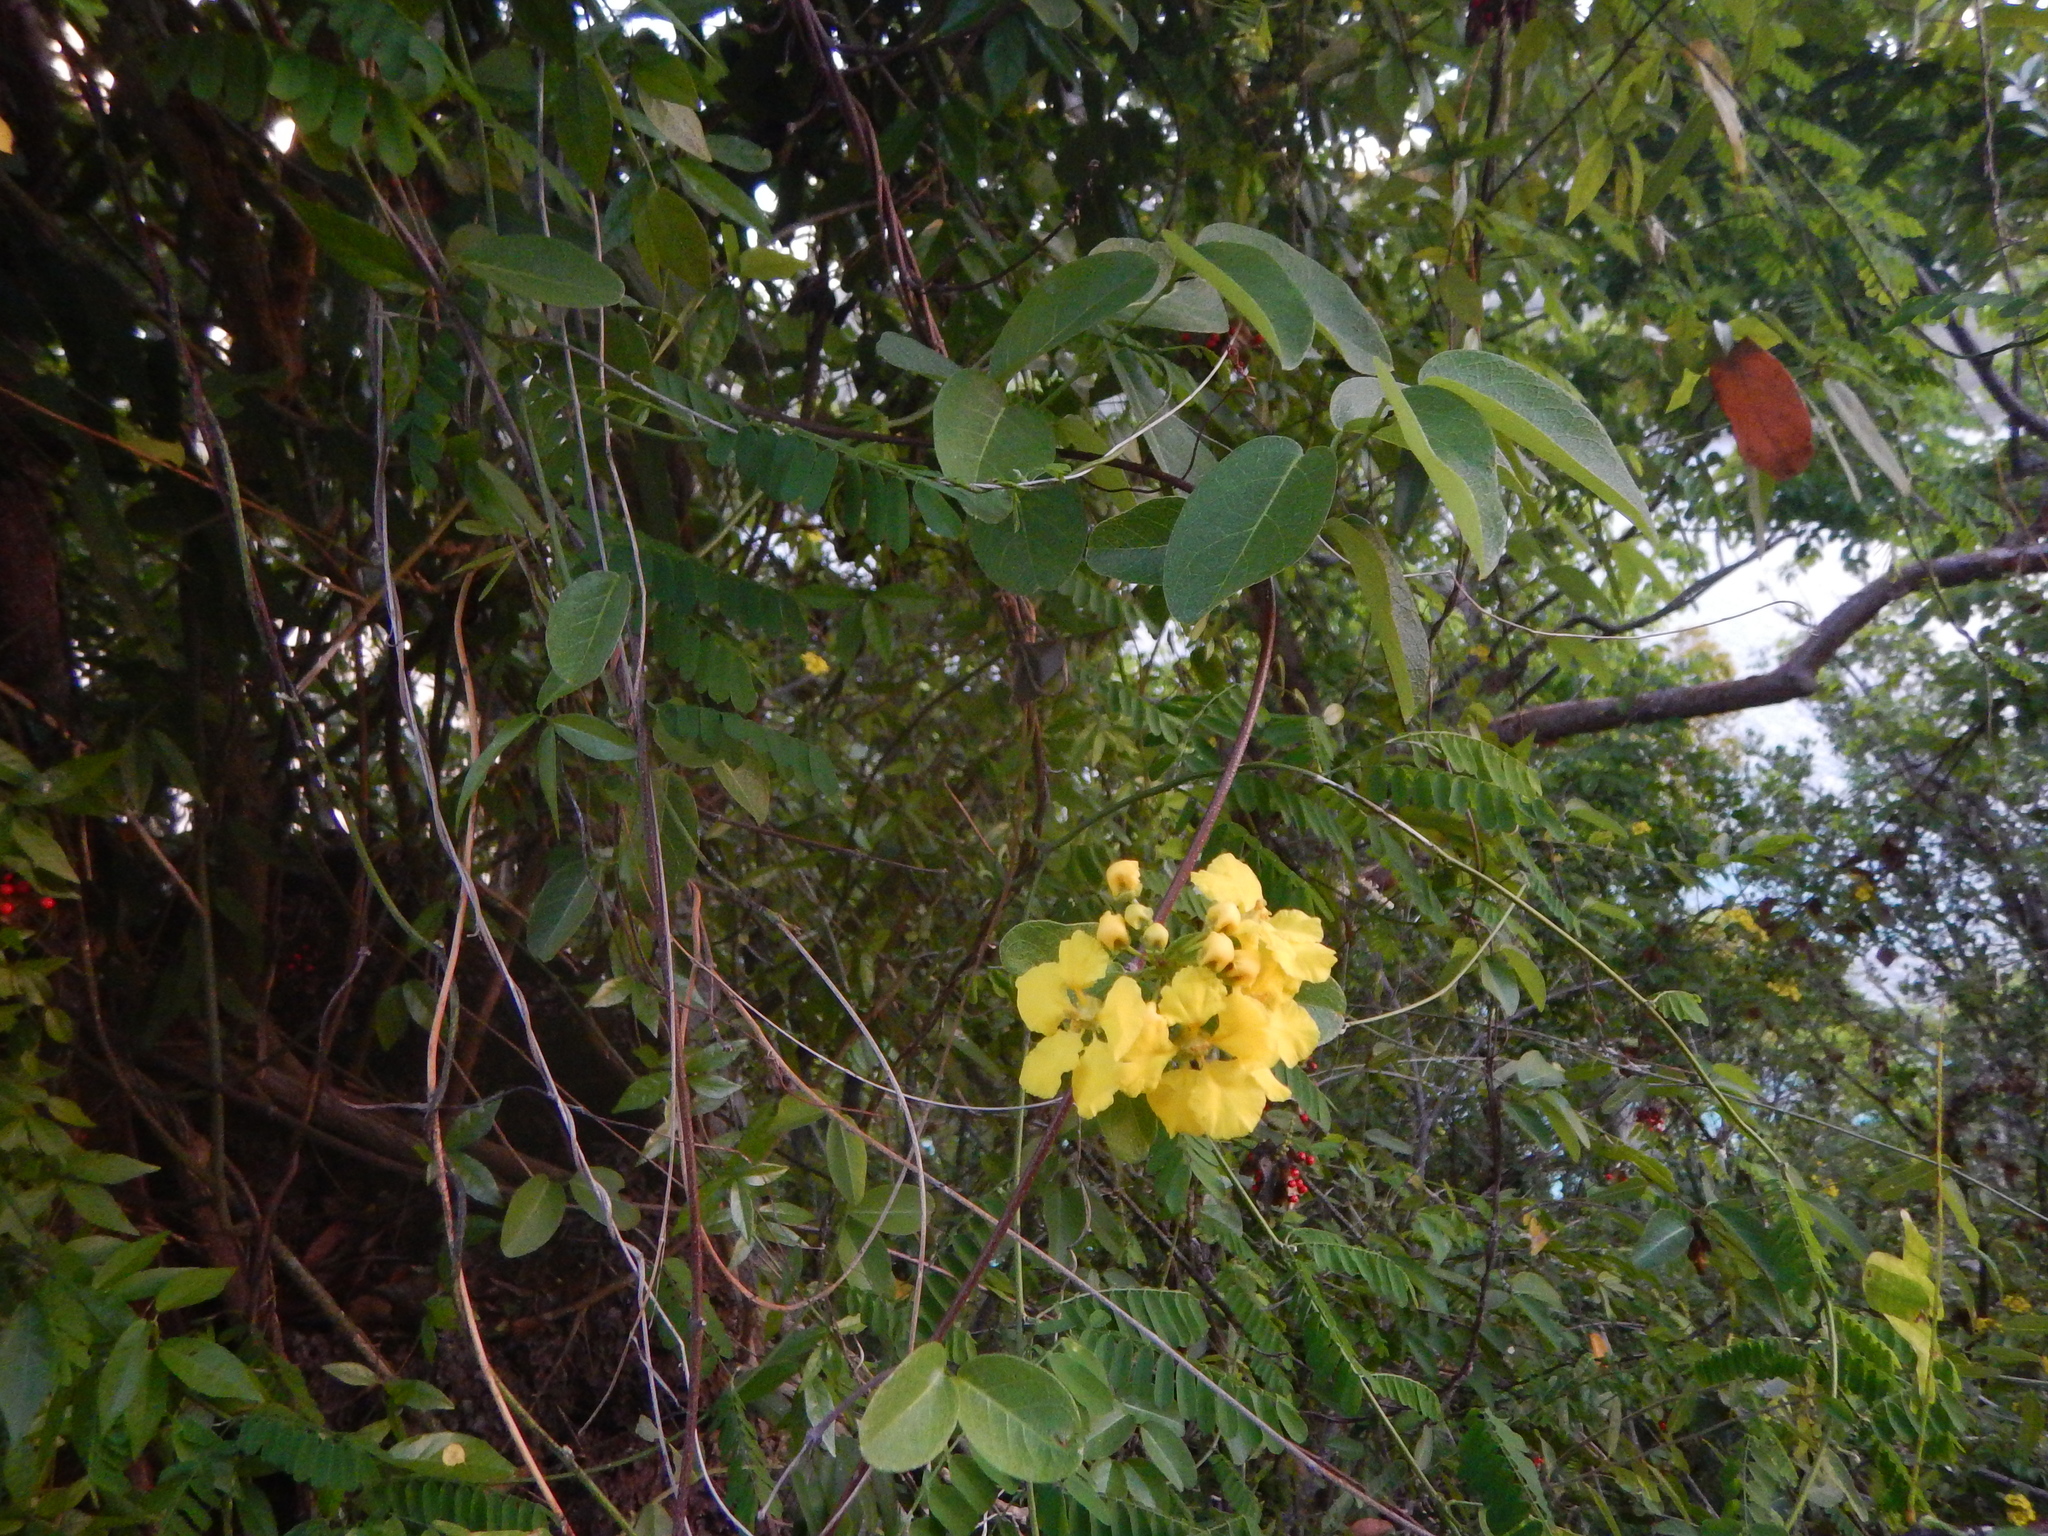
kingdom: Plantae
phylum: Tracheophyta
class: Magnoliopsida
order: Malpighiales
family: Malpighiaceae
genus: Stigmaphyllon
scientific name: Stigmaphyllon emarginatum
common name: Monarch amazonvine
